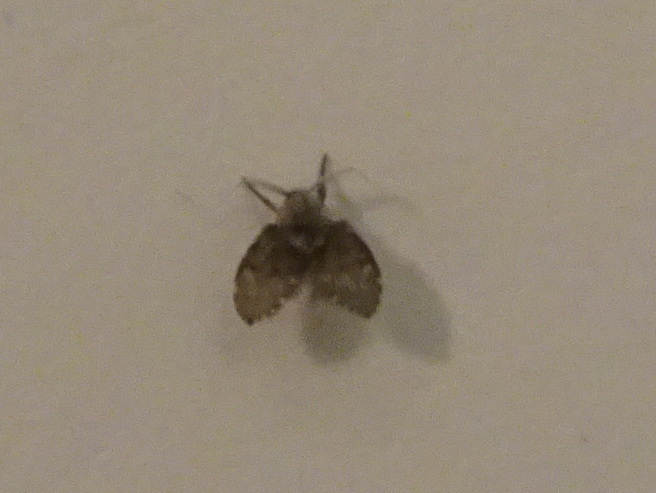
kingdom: Animalia
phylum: Arthropoda
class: Insecta
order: Diptera
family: Psychodidae
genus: Clogmia
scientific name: Clogmia albipunctatus
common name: White-spotted moth fly
